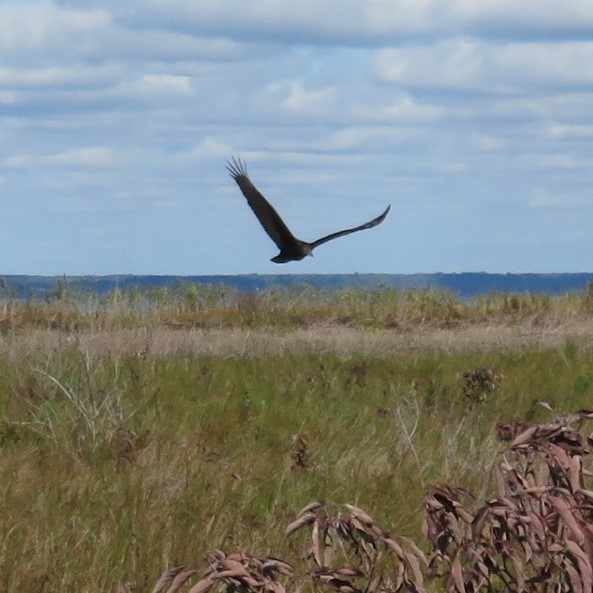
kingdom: Animalia
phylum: Chordata
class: Aves
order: Accipitriformes
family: Cathartidae
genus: Cathartes
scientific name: Cathartes aura
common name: Turkey vulture
